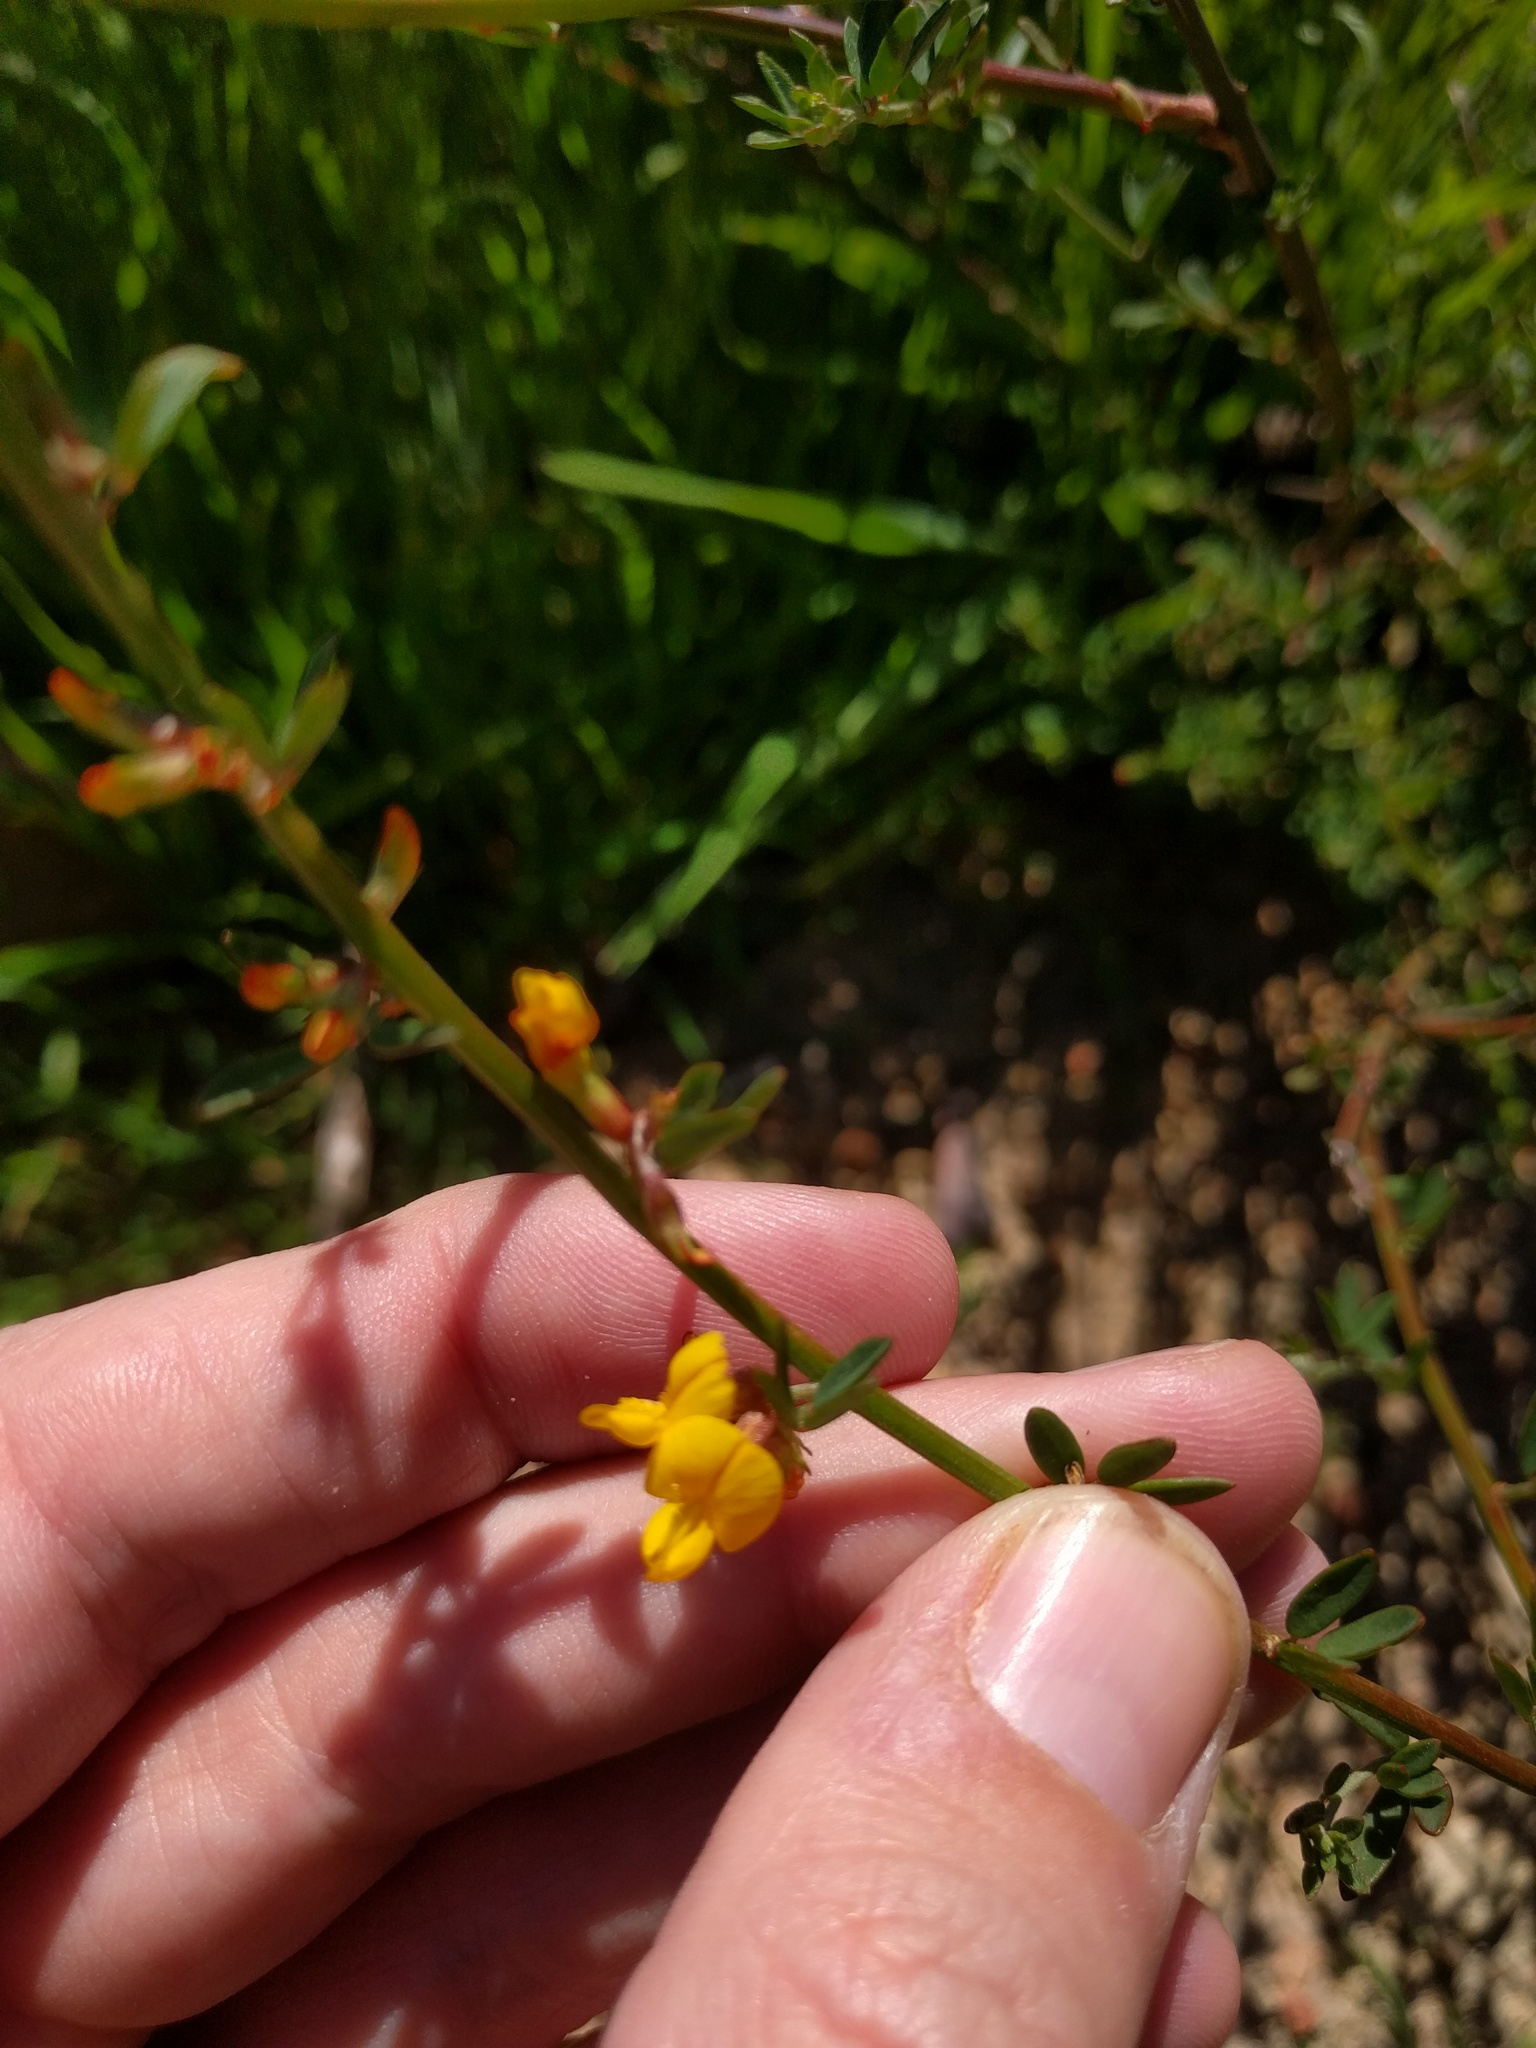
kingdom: Plantae
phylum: Tracheophyta
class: Magnoliopsida
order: Fabales
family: Fabaceae
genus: Acmispon
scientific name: Acmispon glaber
